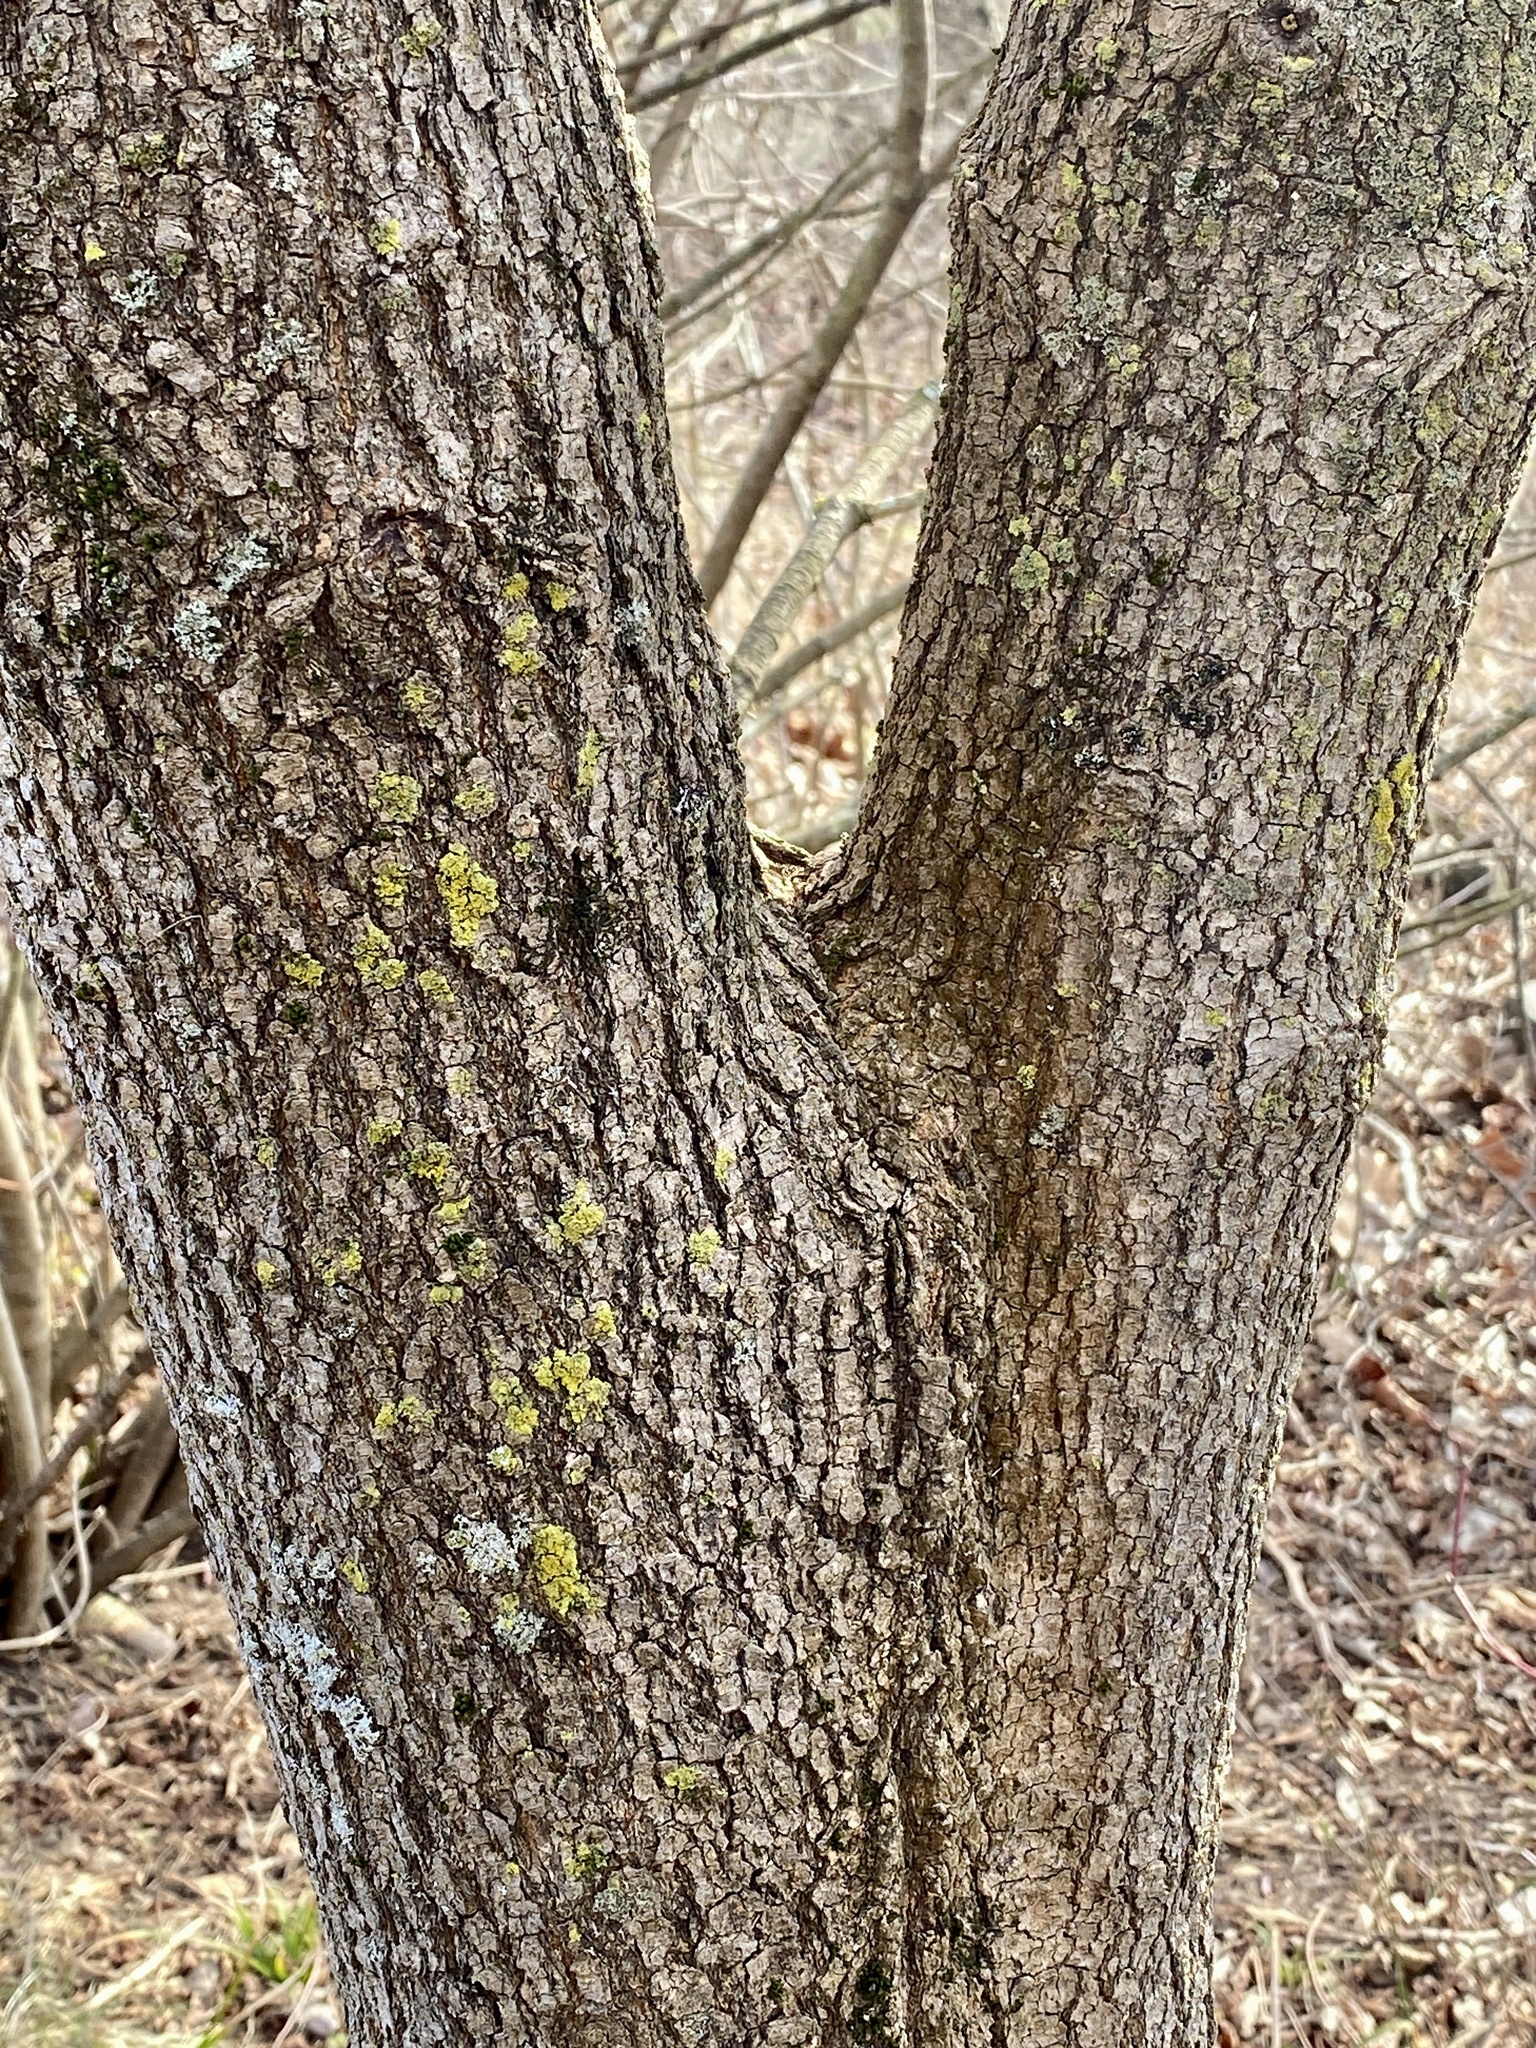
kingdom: Plantae
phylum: Tracheophyta
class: Magnoliopsida
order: Sapindales
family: Sapindaceae
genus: Acer
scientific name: Acer negundo
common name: Ashleaf maple
